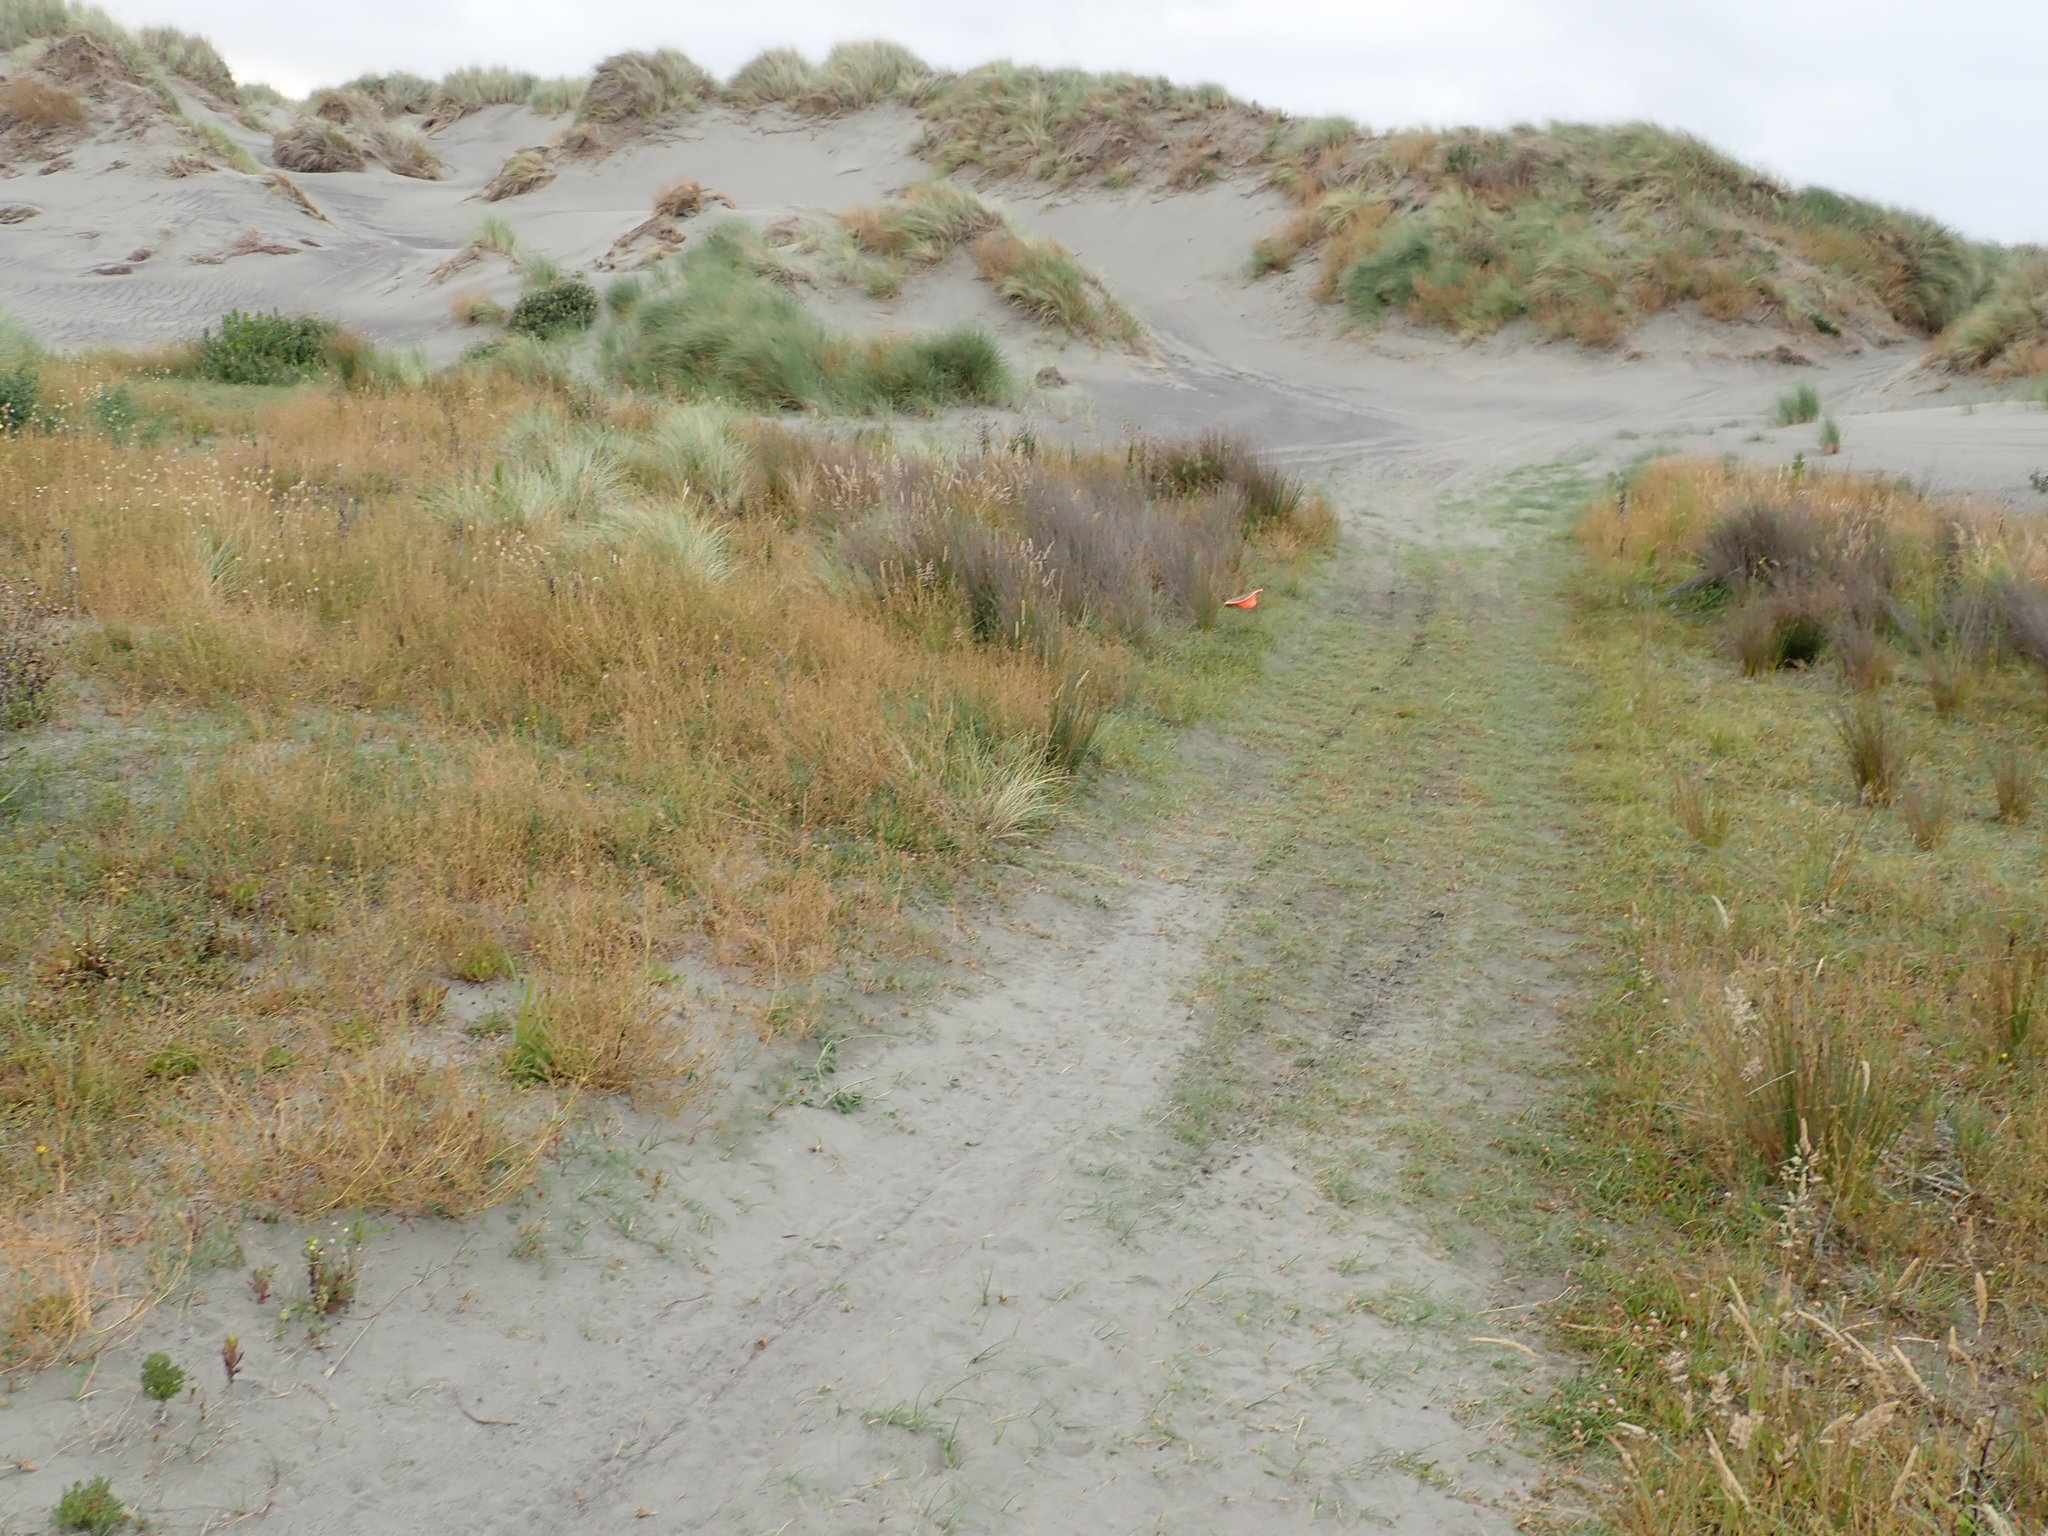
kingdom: Plantae
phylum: Tracheophyta
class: Liliopsida
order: Poales
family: Cyperaceae
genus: Isolepis
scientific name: Isolepis basilaris
